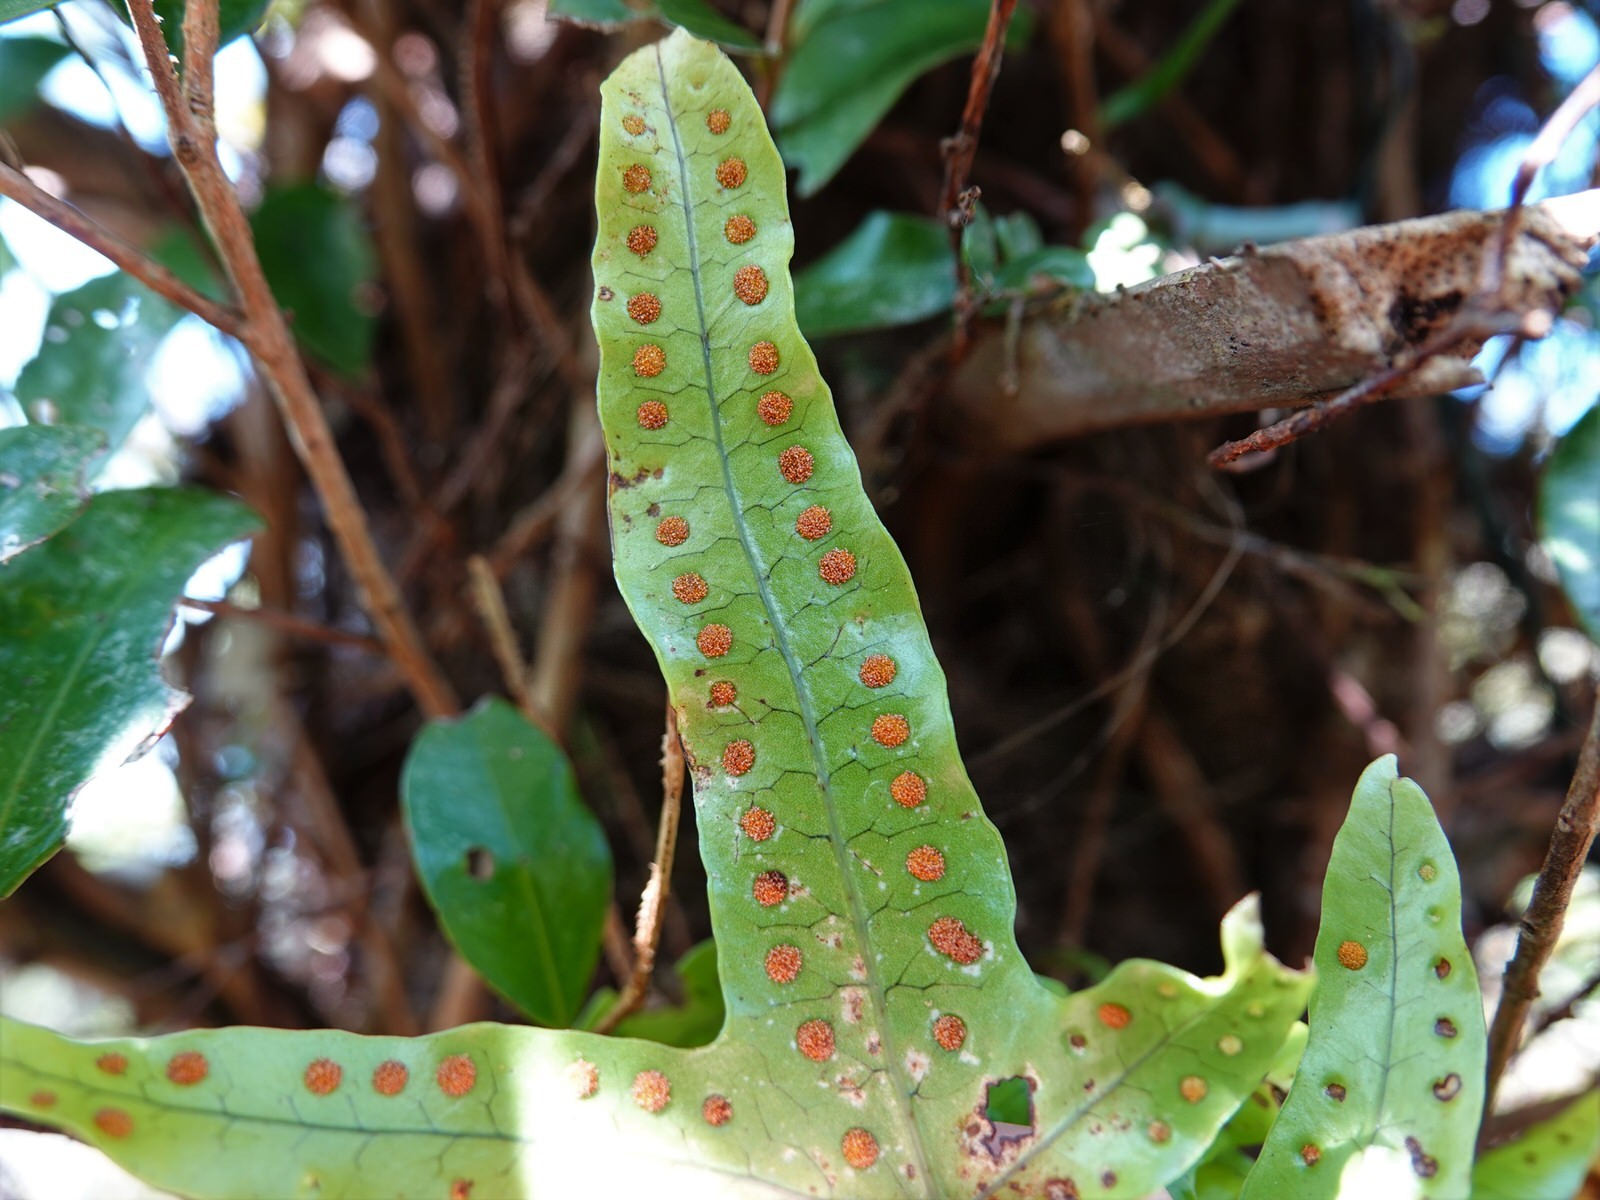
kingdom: Plantae
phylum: Tracheophyta
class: Polypodiopsida
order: Polypodiales
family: Polypodiaceae
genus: Lecanopteris
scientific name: Lecanopteris pustulata
